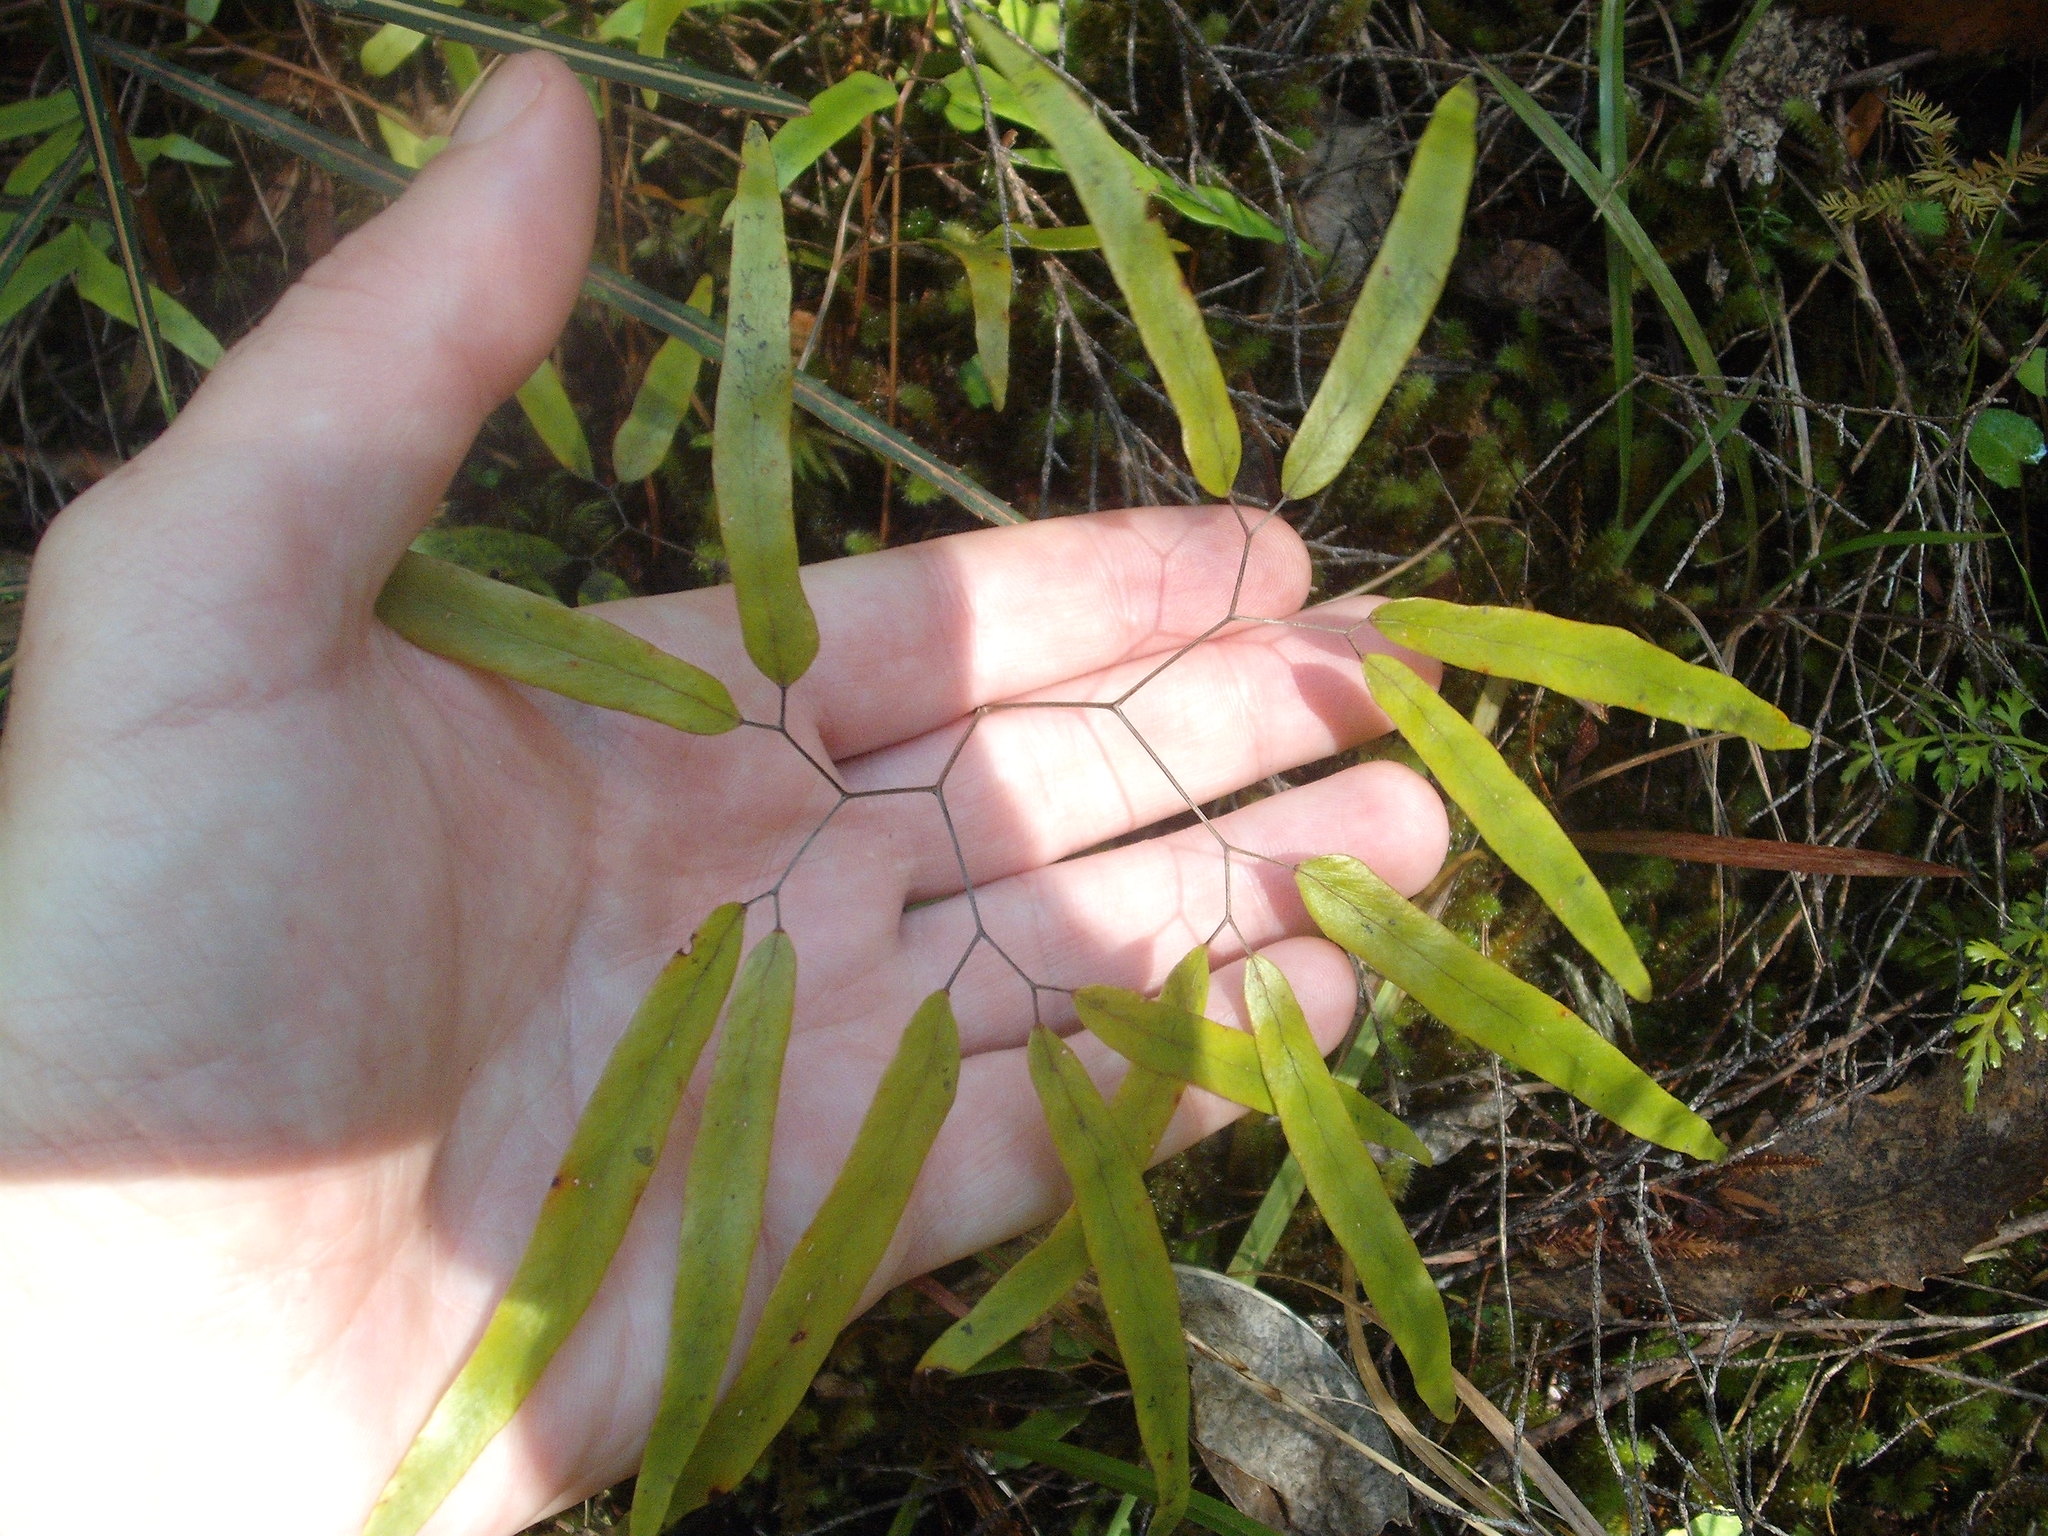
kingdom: Plantae
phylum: Tracheophyta
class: Polypodiopsida
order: Schizaeales
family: Lygodiaceae
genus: Lygodium
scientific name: Lygodium articulatum
